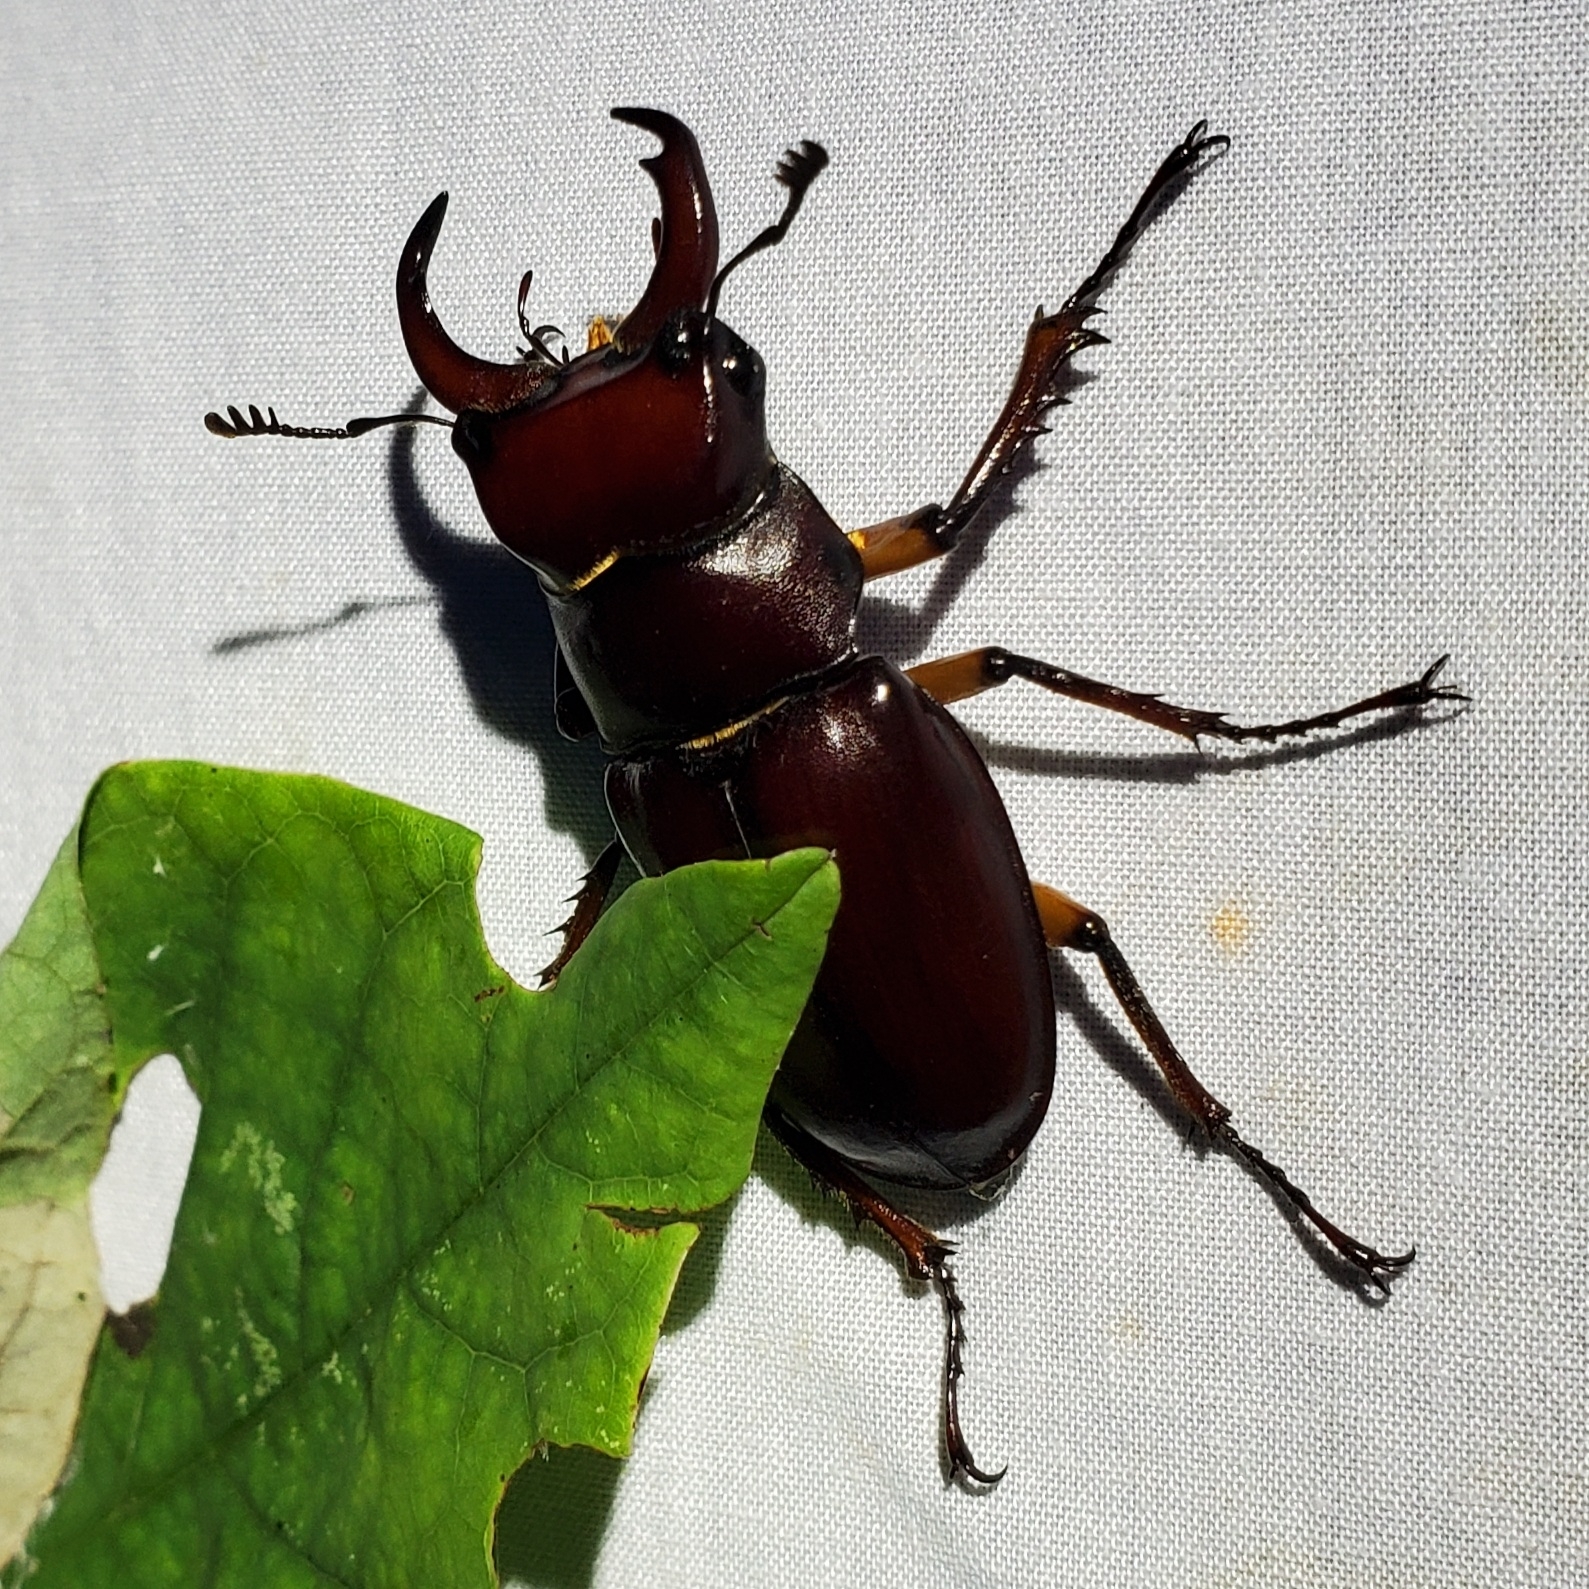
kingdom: Animalia
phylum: Arthropoda
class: Insecta
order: Coleoptera
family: Lucanidae
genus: Lucanus
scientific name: Lucanus capreolus
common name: Stag beetle
